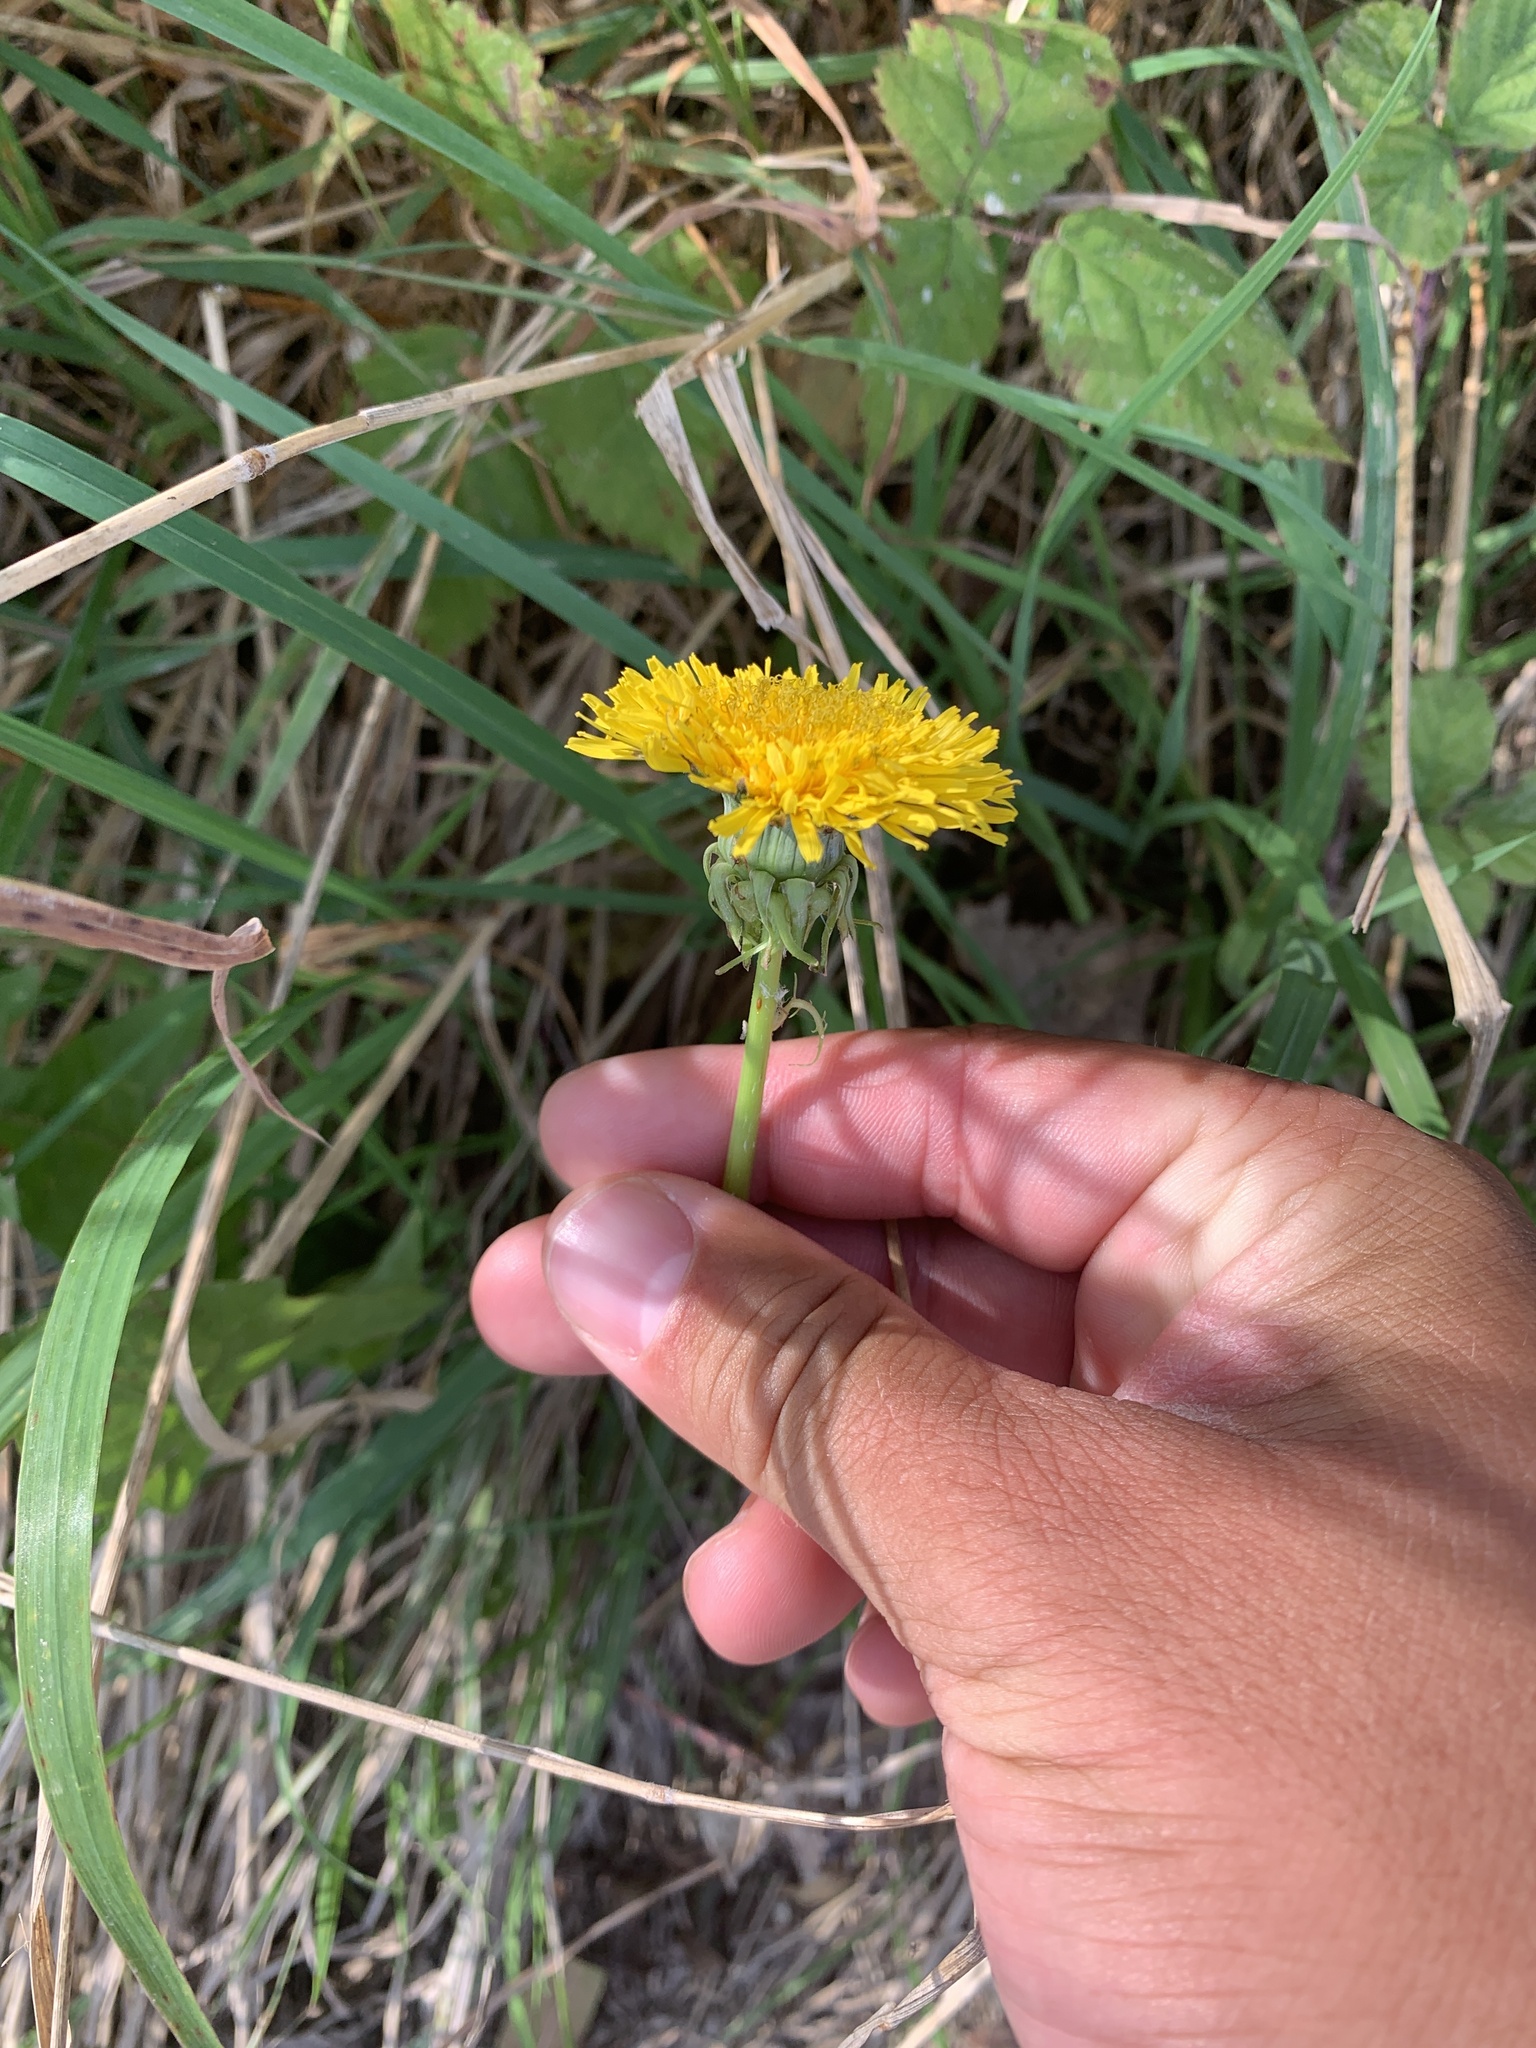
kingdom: Plantae
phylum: Tracheophyta
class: Magnoliopsida
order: Asterales
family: Asteraceae
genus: Taraxacum
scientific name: Taraxacum officinale
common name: Common dandelion
